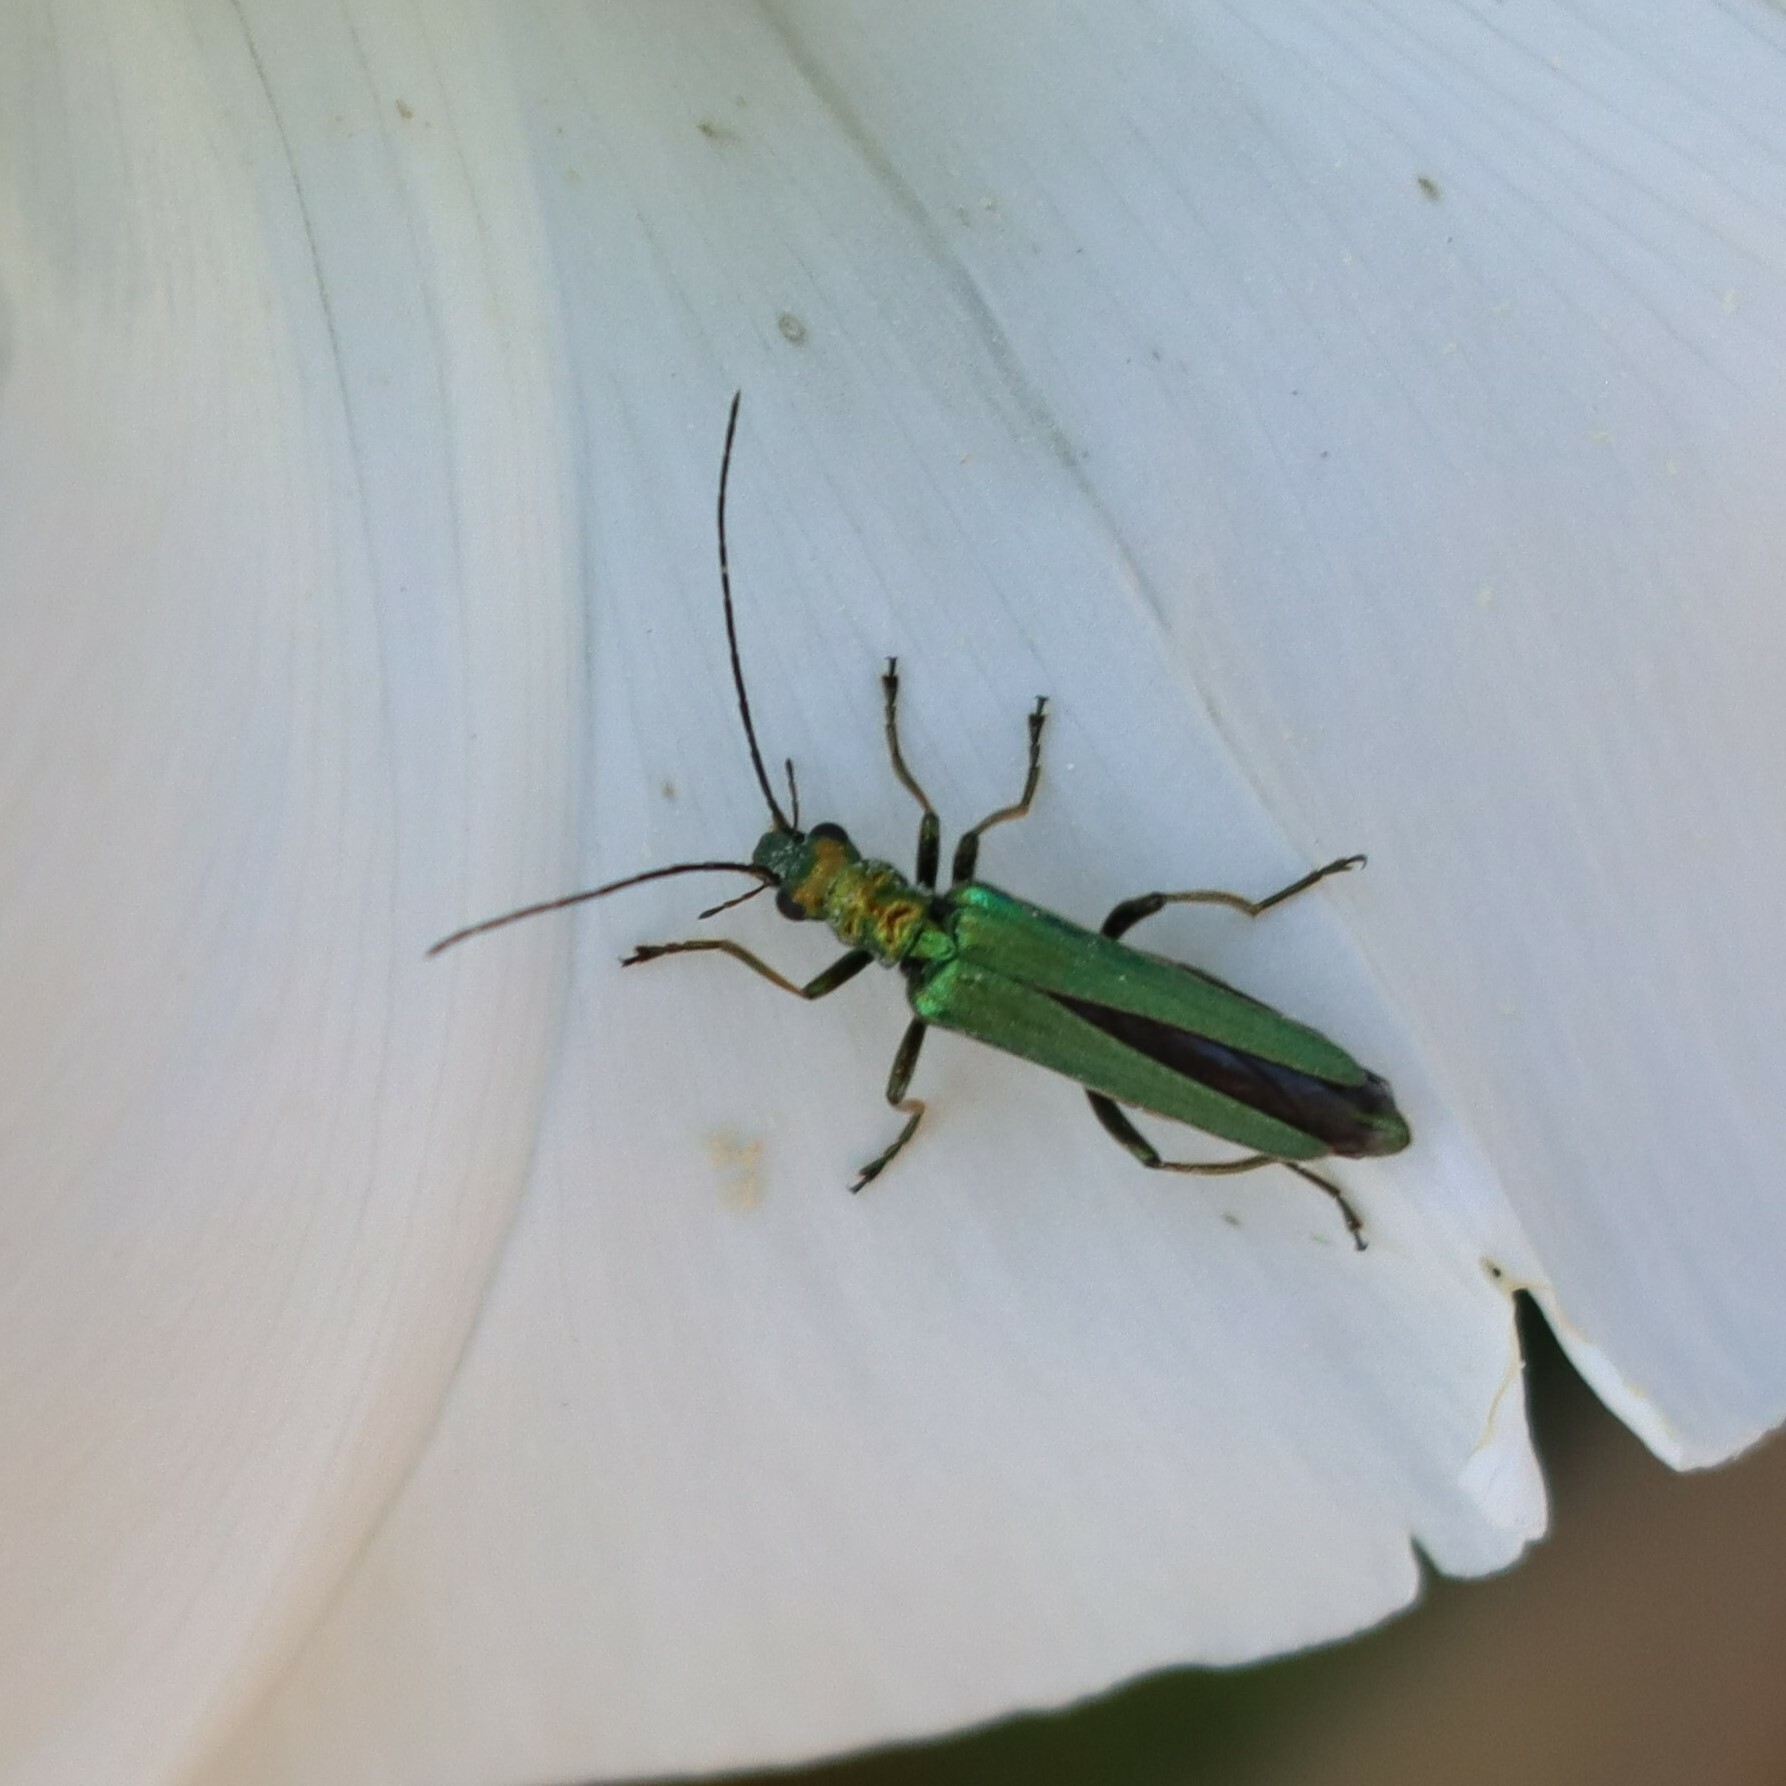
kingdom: Animalia
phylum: Arthropoda
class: Insecta
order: Coleoptera
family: Oedemeridae
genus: Oedemera
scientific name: Oedemera nobilis
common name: Swollen-thighed beetle
